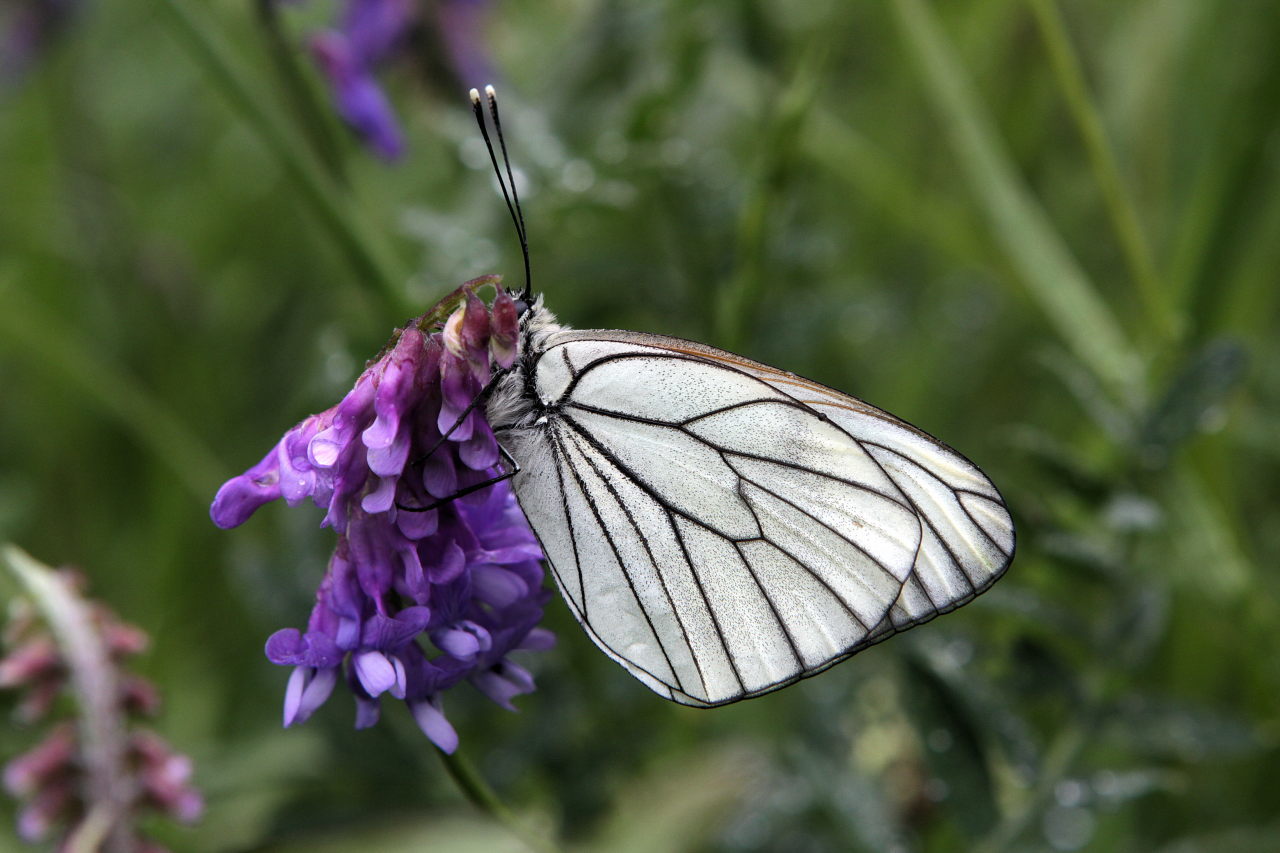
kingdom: Animalia
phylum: Arthropoda
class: Insecta
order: Lepidoptera
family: Pieridae
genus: Aporia
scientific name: Aporia crataegi
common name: Black-veined white
